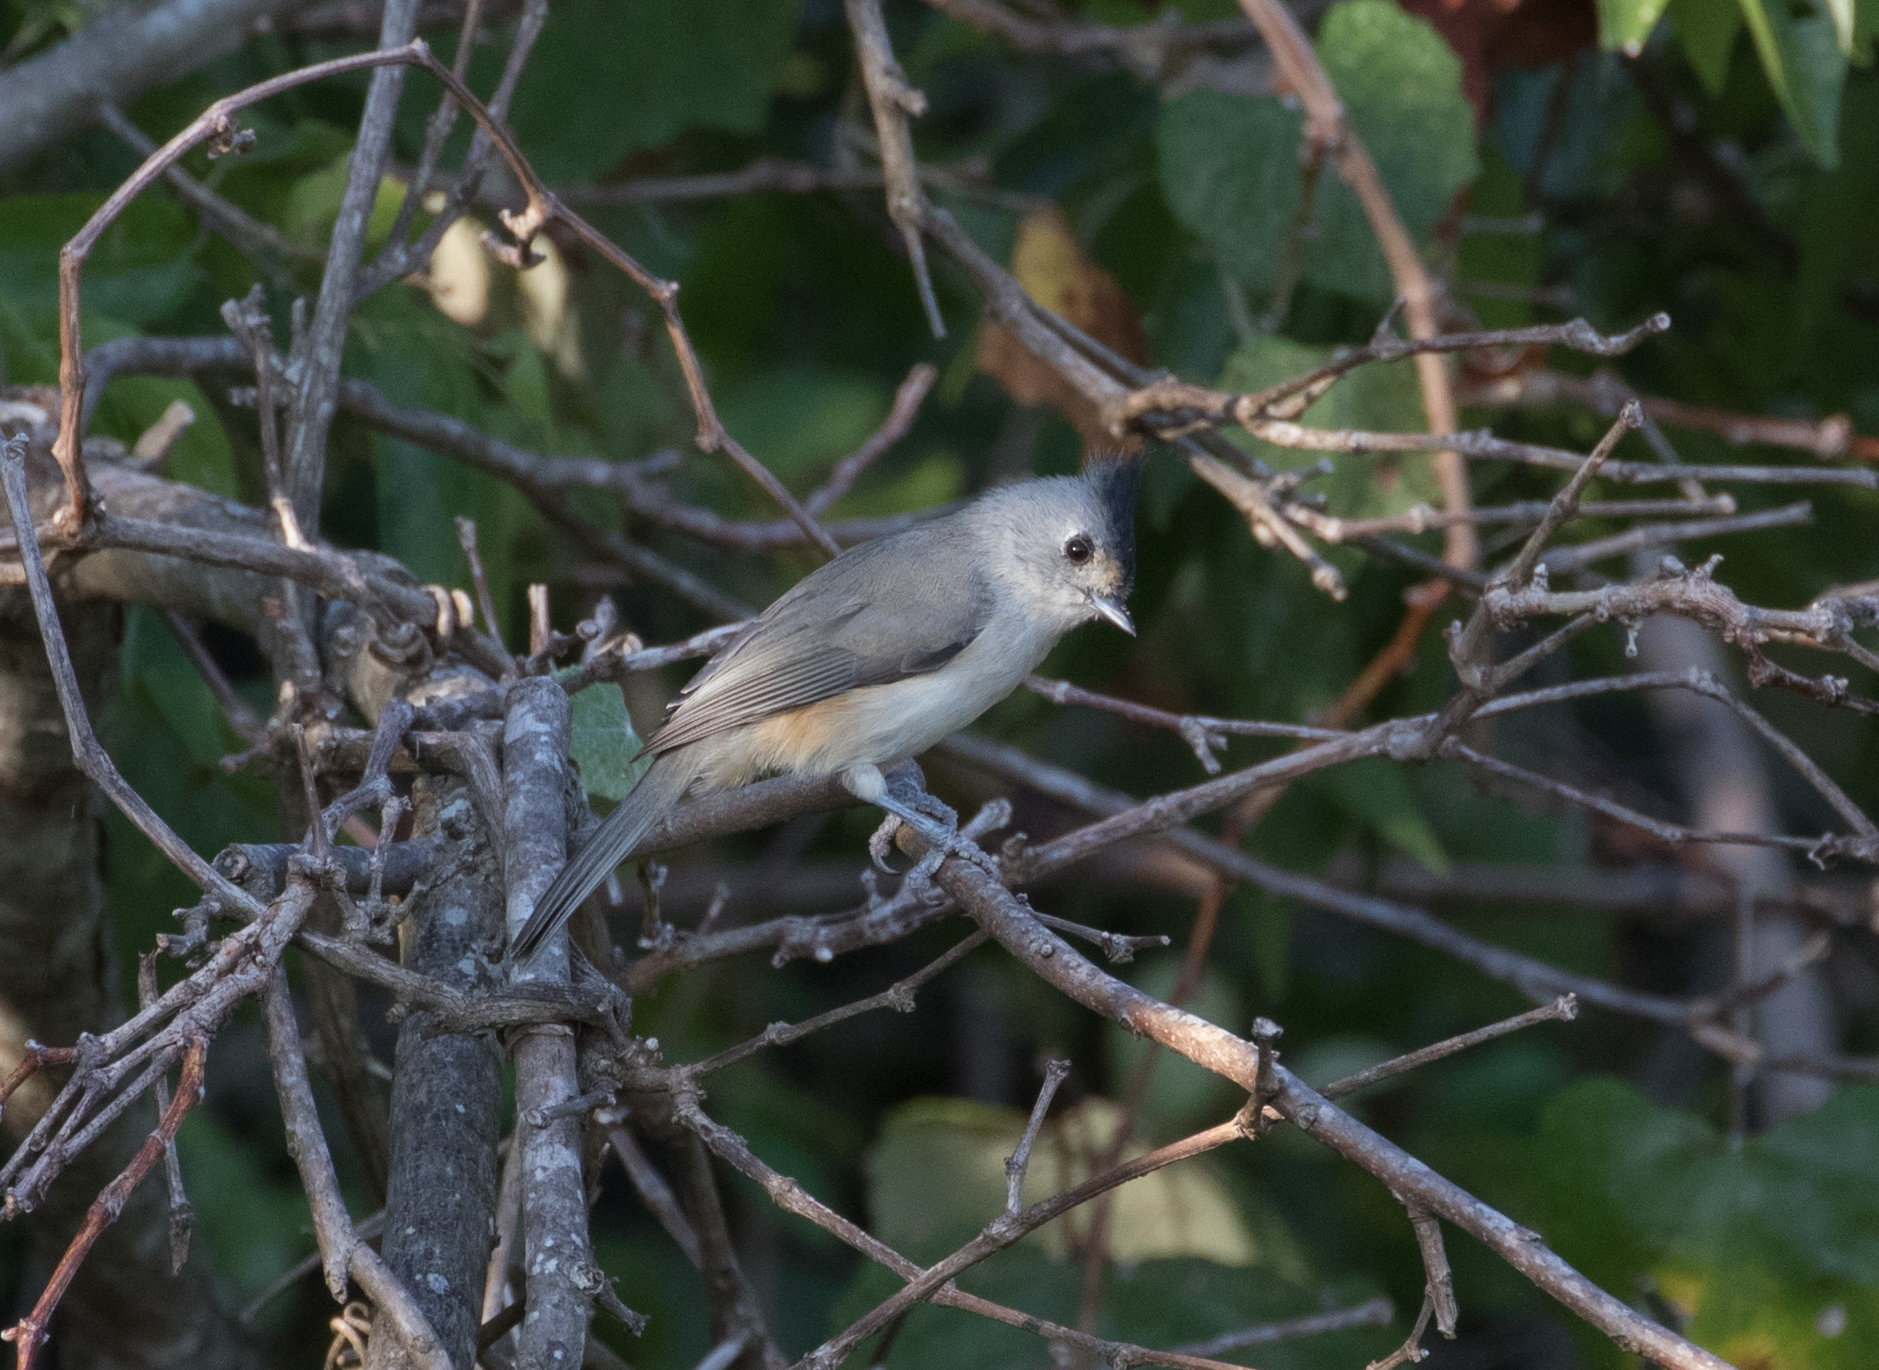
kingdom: Animalia
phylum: Chordata
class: Aves
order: Passeriformes
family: Paridae
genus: Baeolophus
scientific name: Baeolophus atricristatus
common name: Black-crested titmouse
